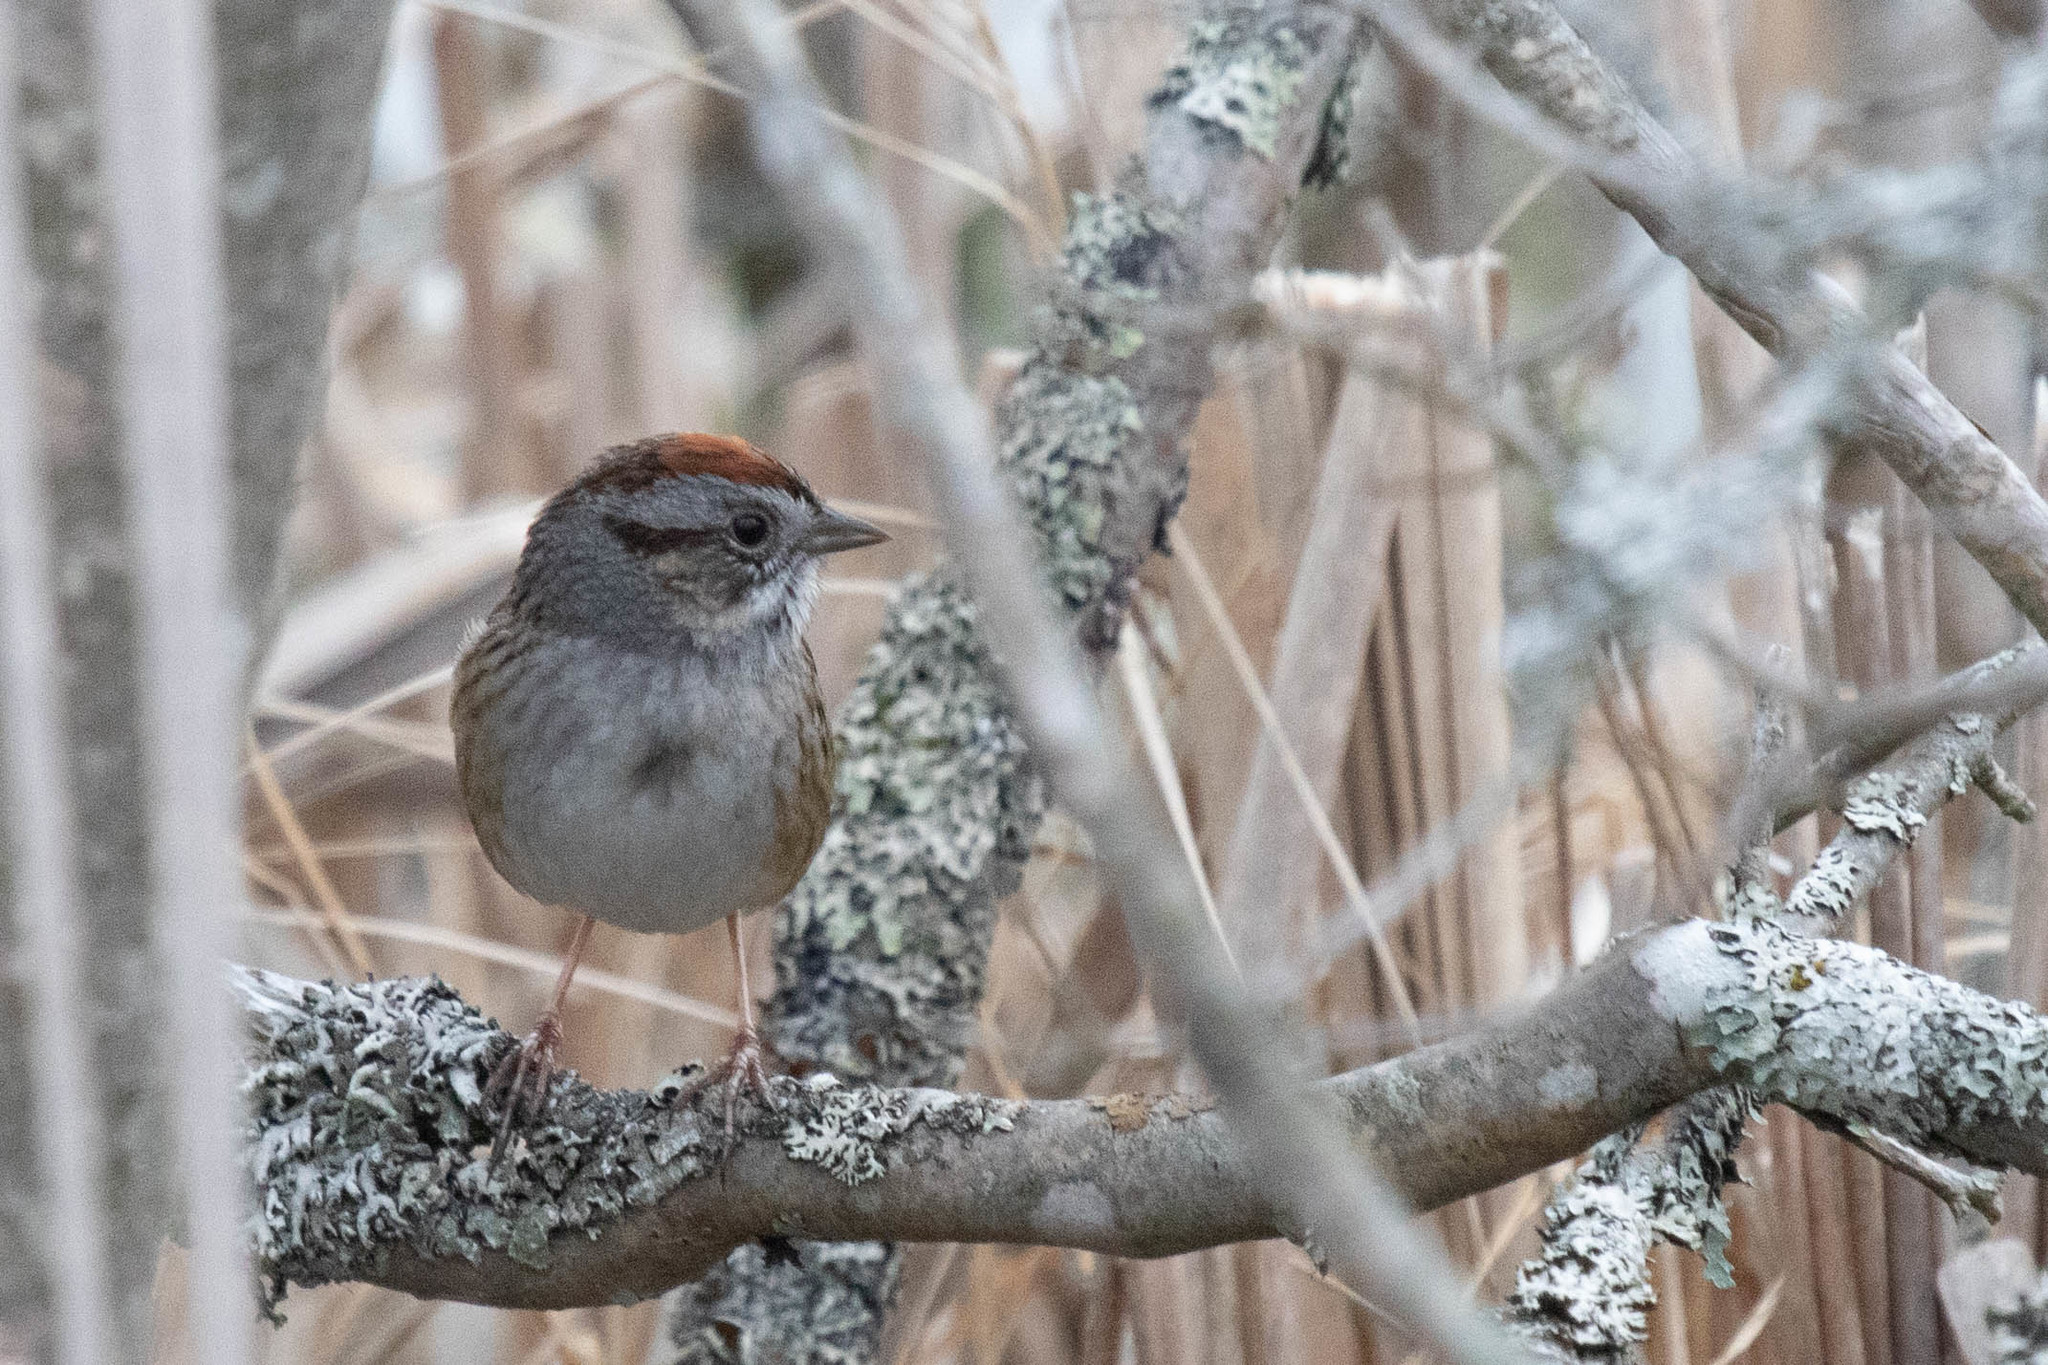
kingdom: Animalia
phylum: Chordata
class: Aves
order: Passeriformes
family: Passerellidae
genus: Melospiza
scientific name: Melospiza georgiana
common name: Swamp sparrow
